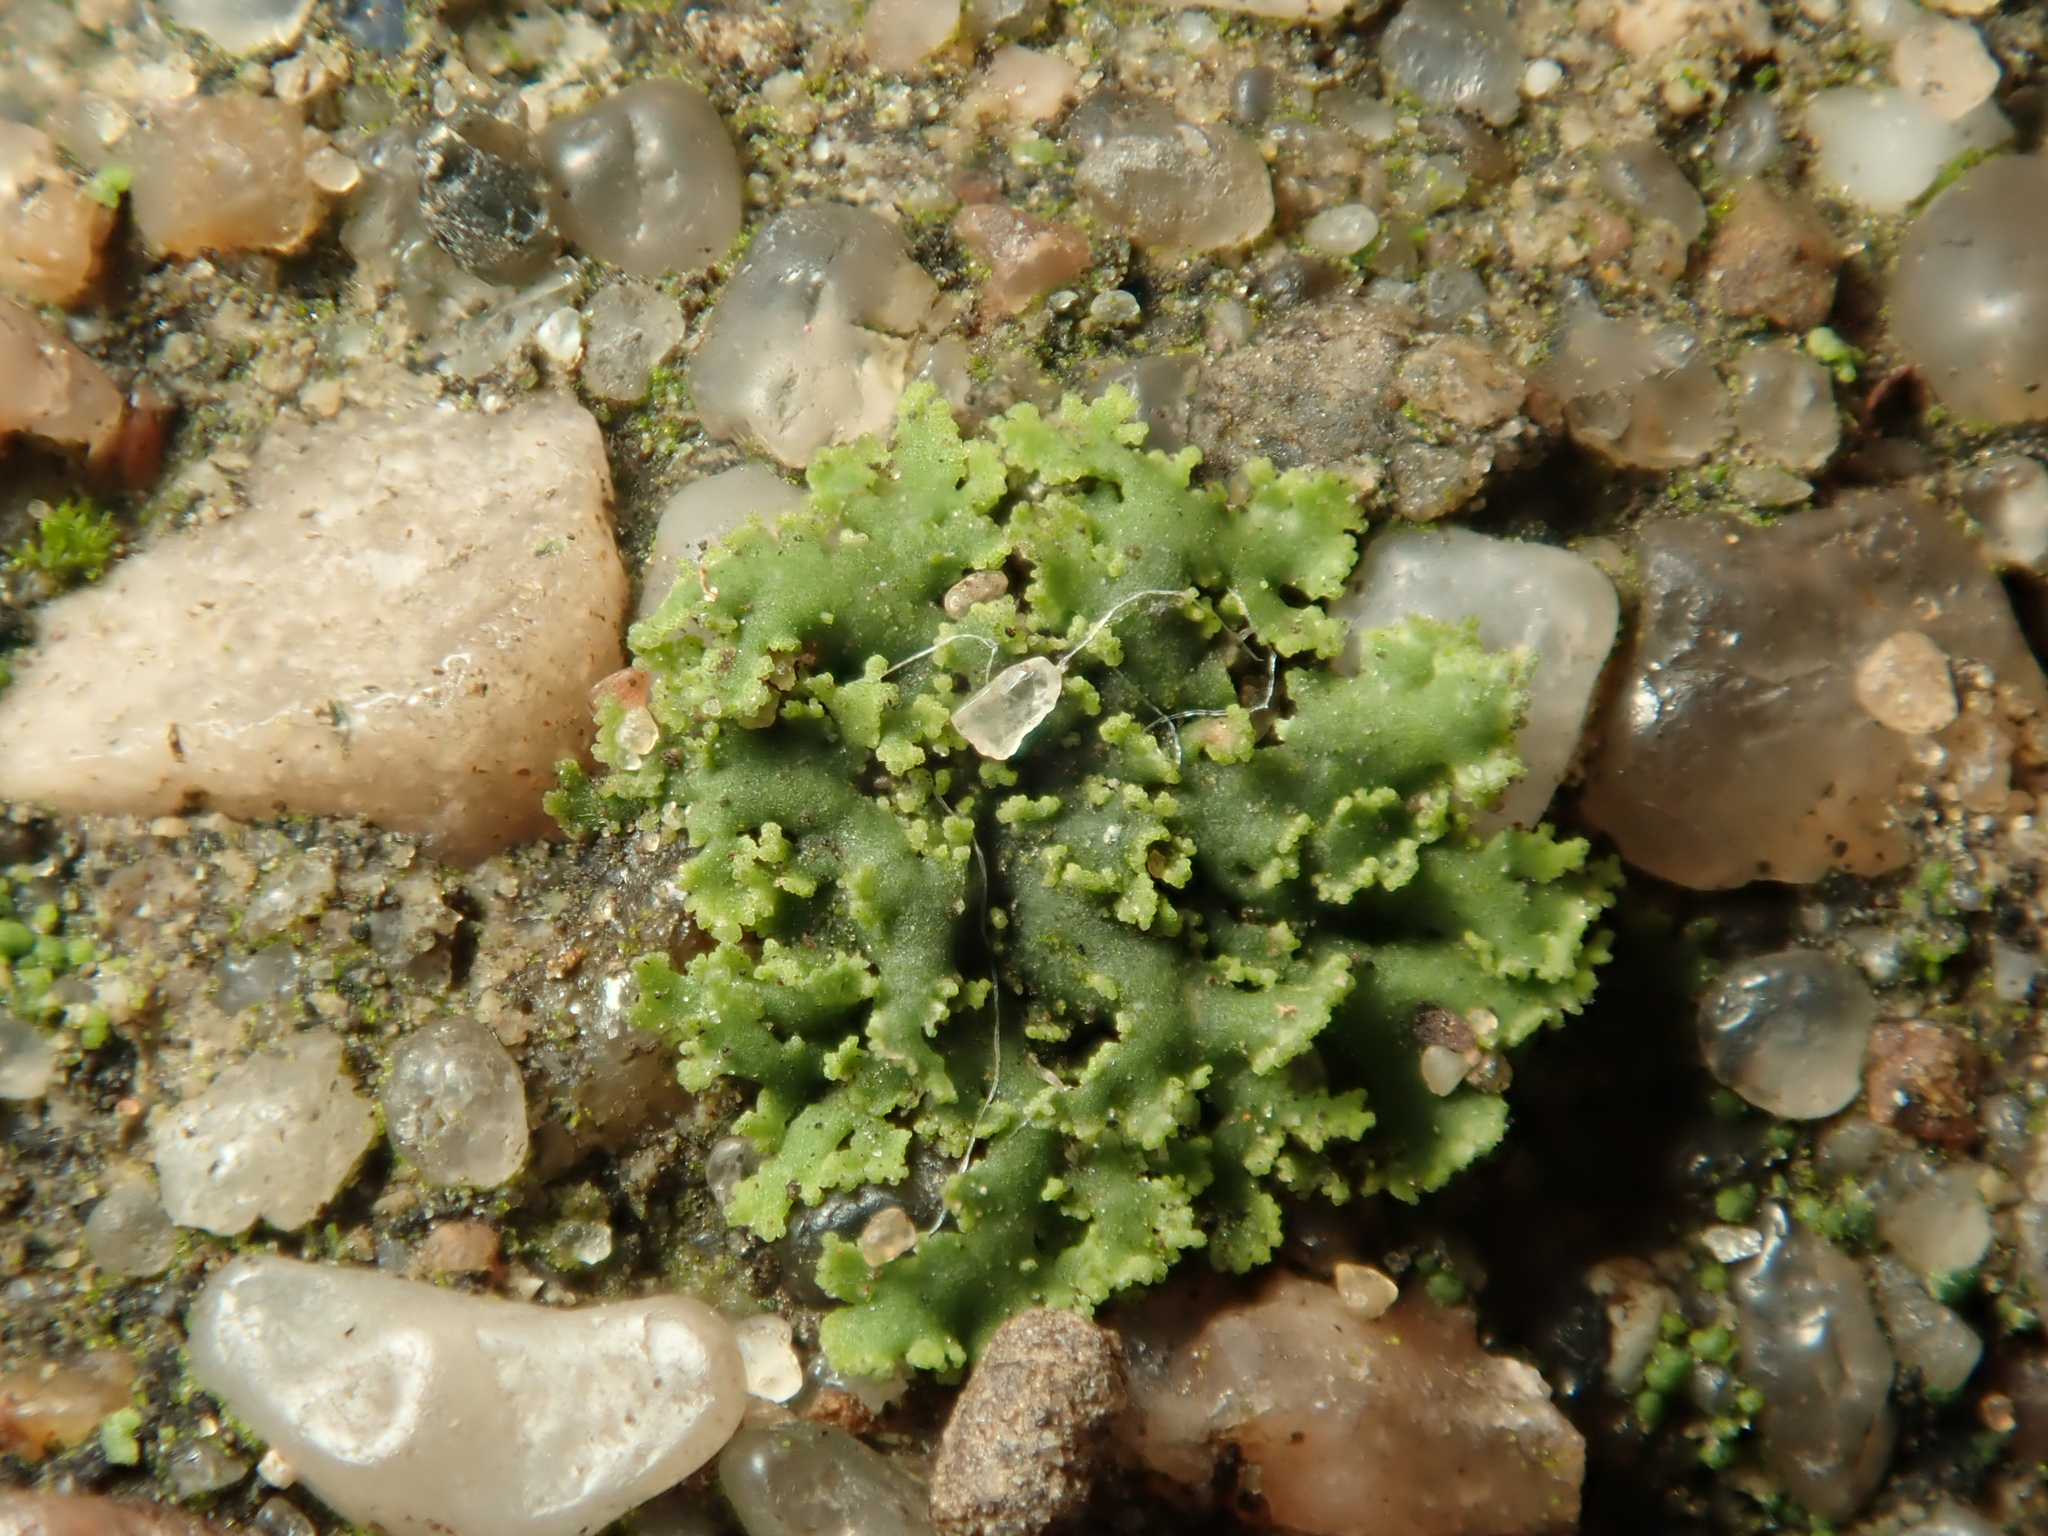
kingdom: Fungi
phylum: Ascomycota
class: Lecanoromycetes
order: Caliciales
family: Physciaceae
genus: Physciella
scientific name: Physciella nigricans
